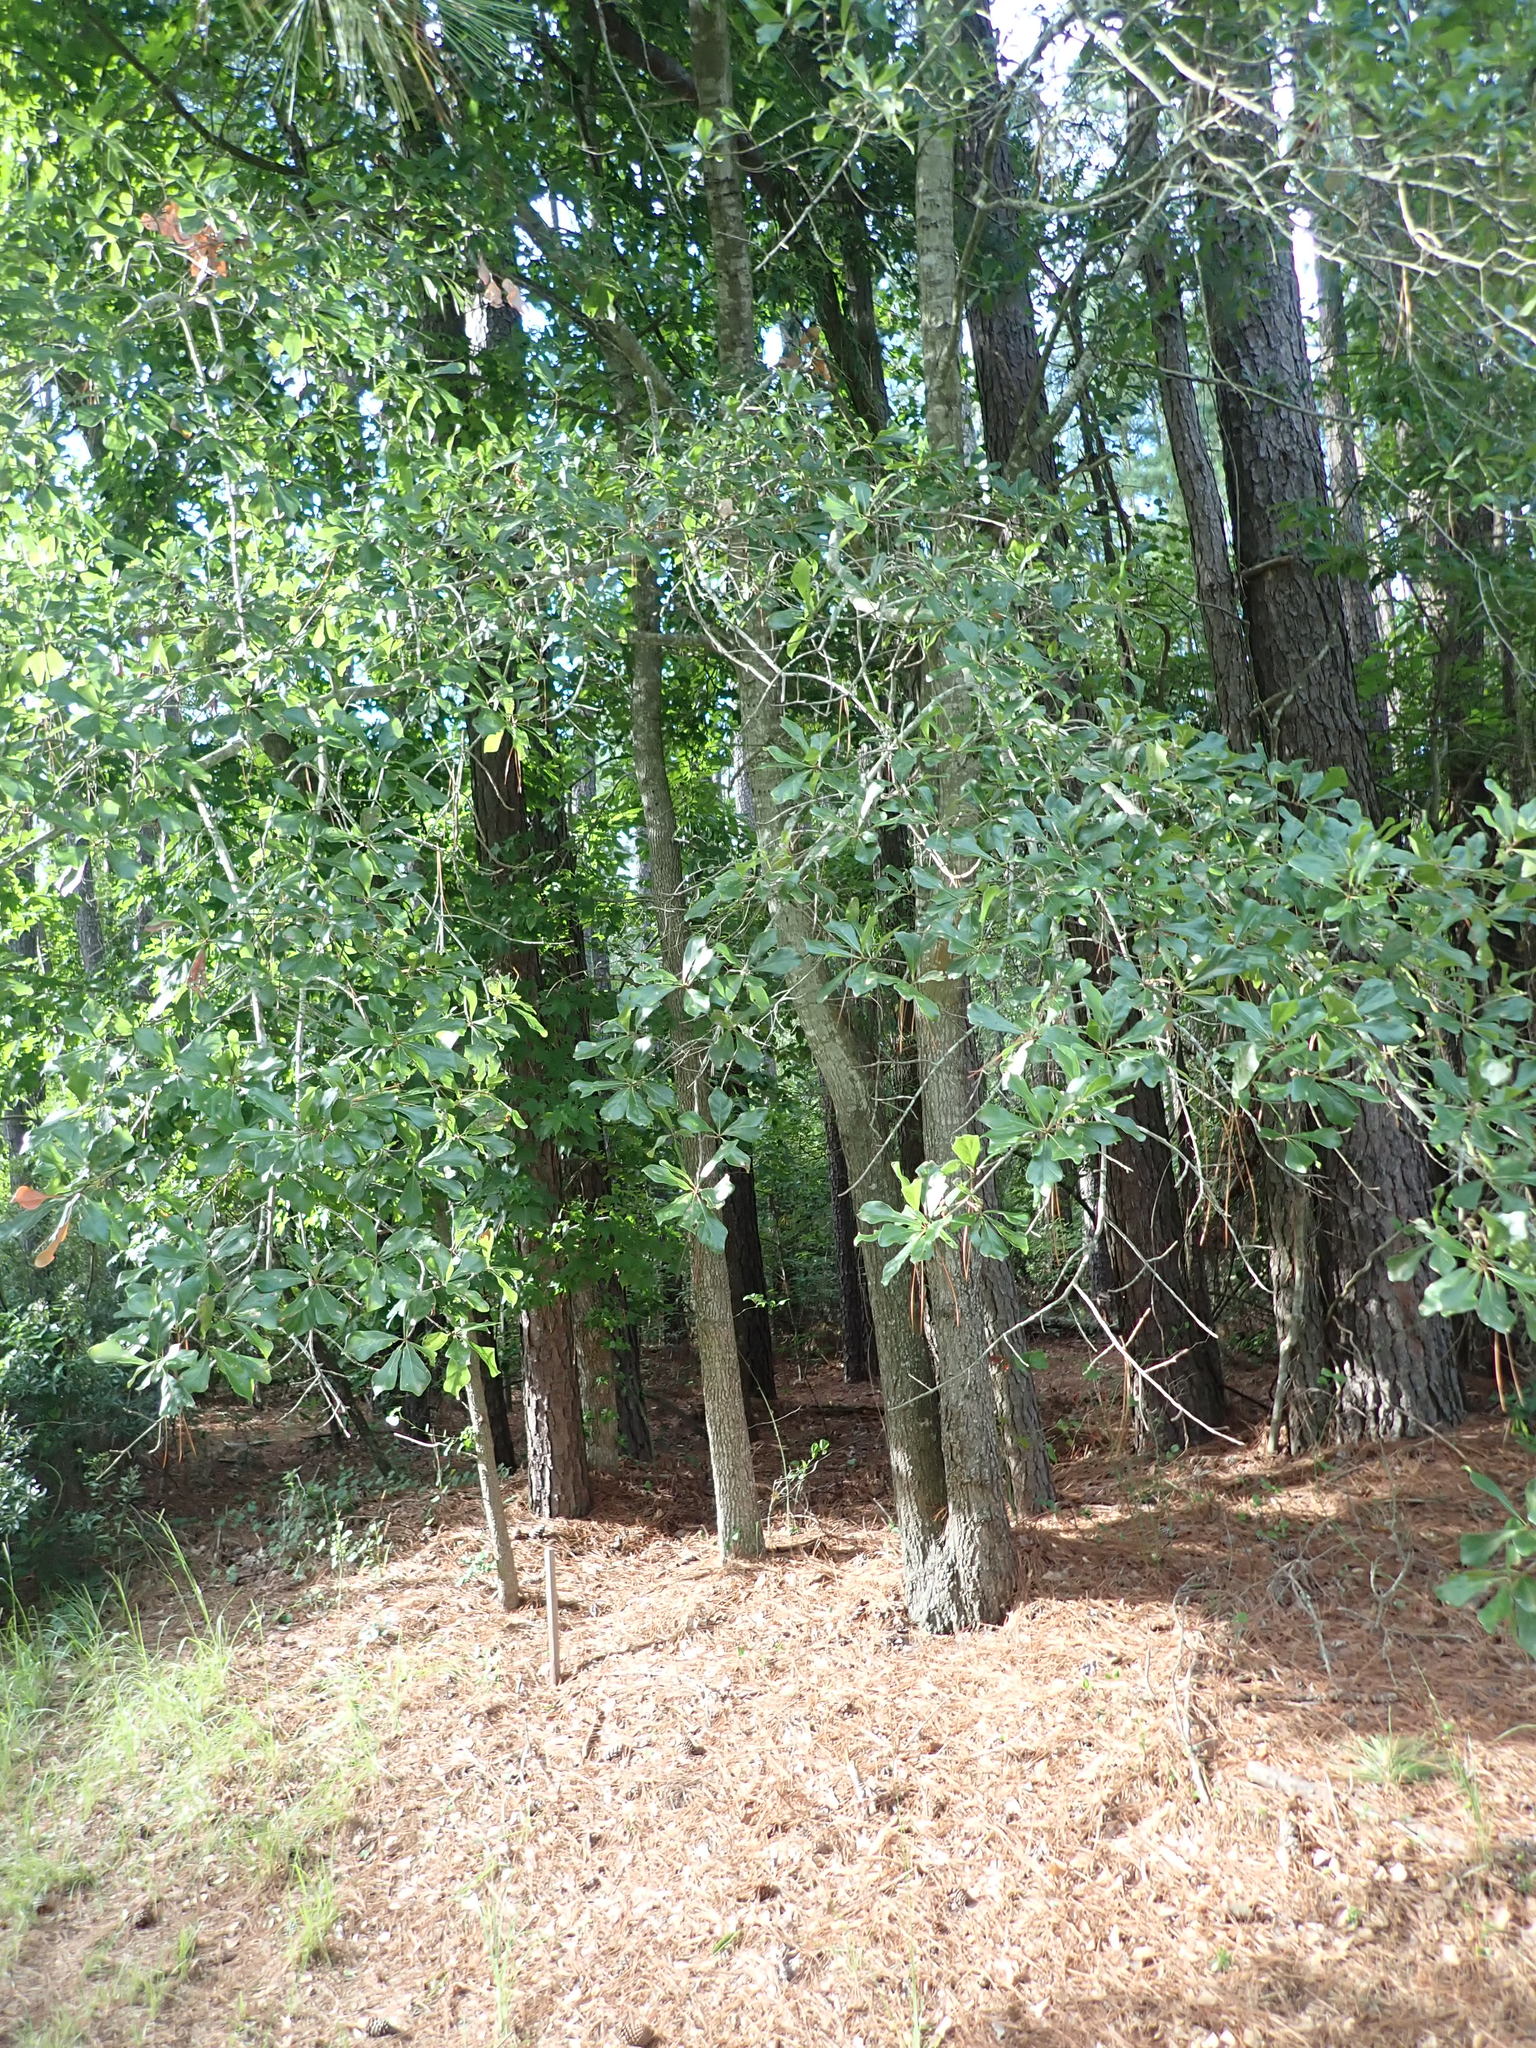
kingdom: Plantae
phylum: Tracheophyta
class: Magnoliopsida
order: Fagales
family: Fagaceae
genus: Quercus
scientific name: Quercus nigra
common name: Water oak
